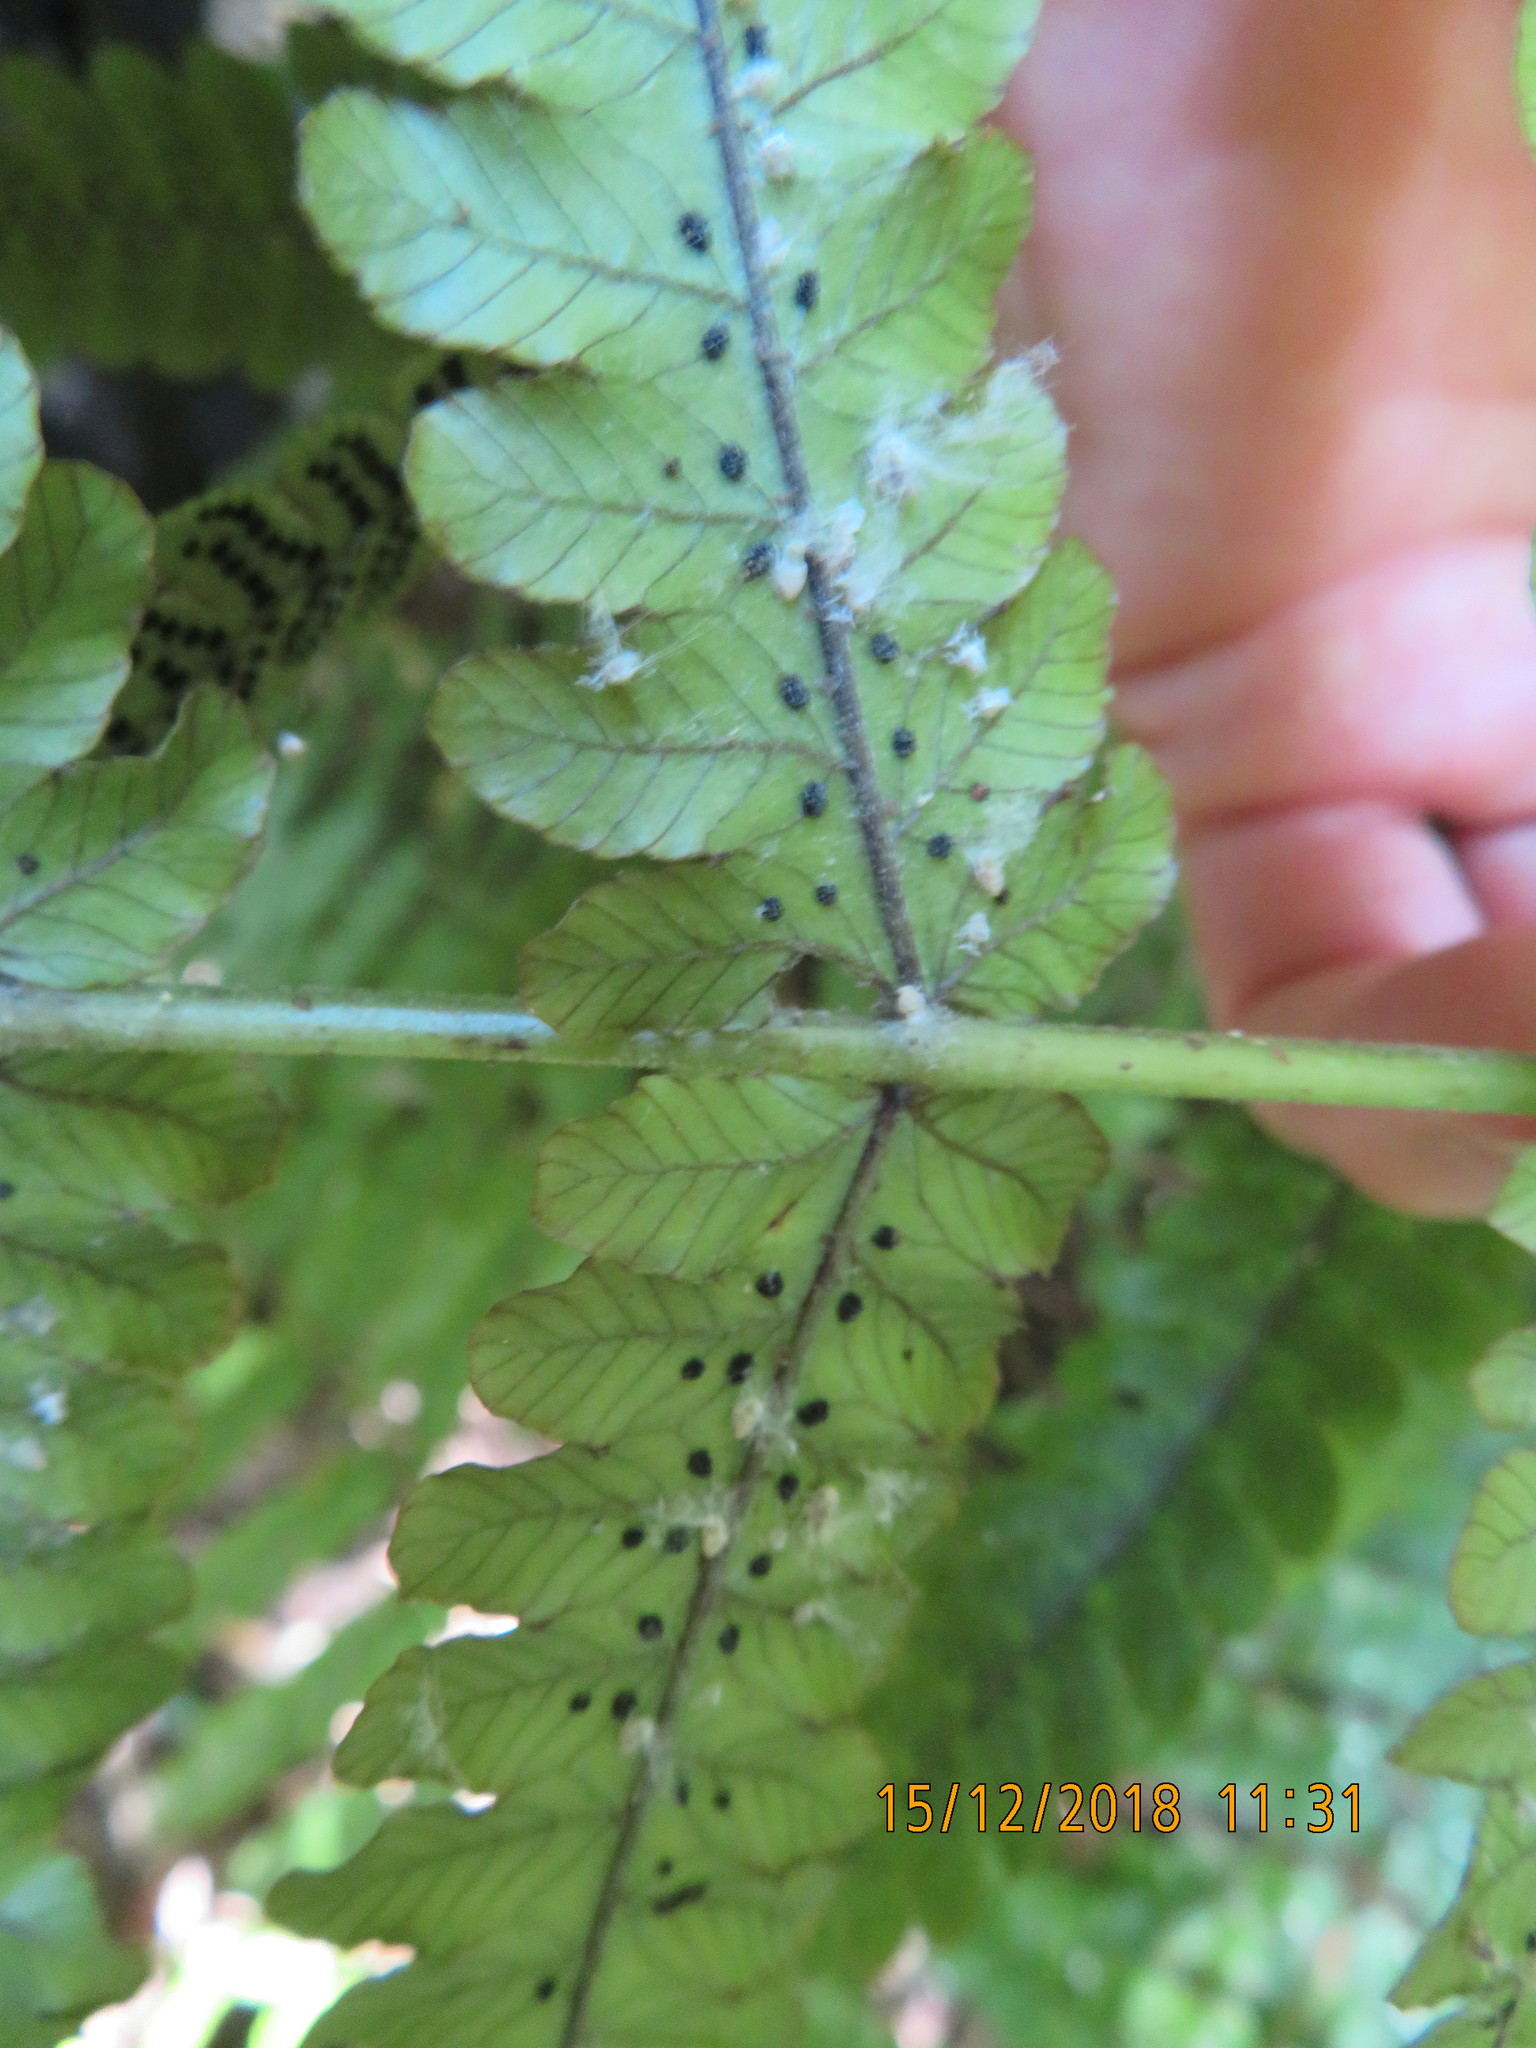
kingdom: Plantae
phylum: Tracheophyta
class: Polypodiopsida
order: Polypodiales
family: Thelypteridaceae
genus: Pakau
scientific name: Pakau pennigera
